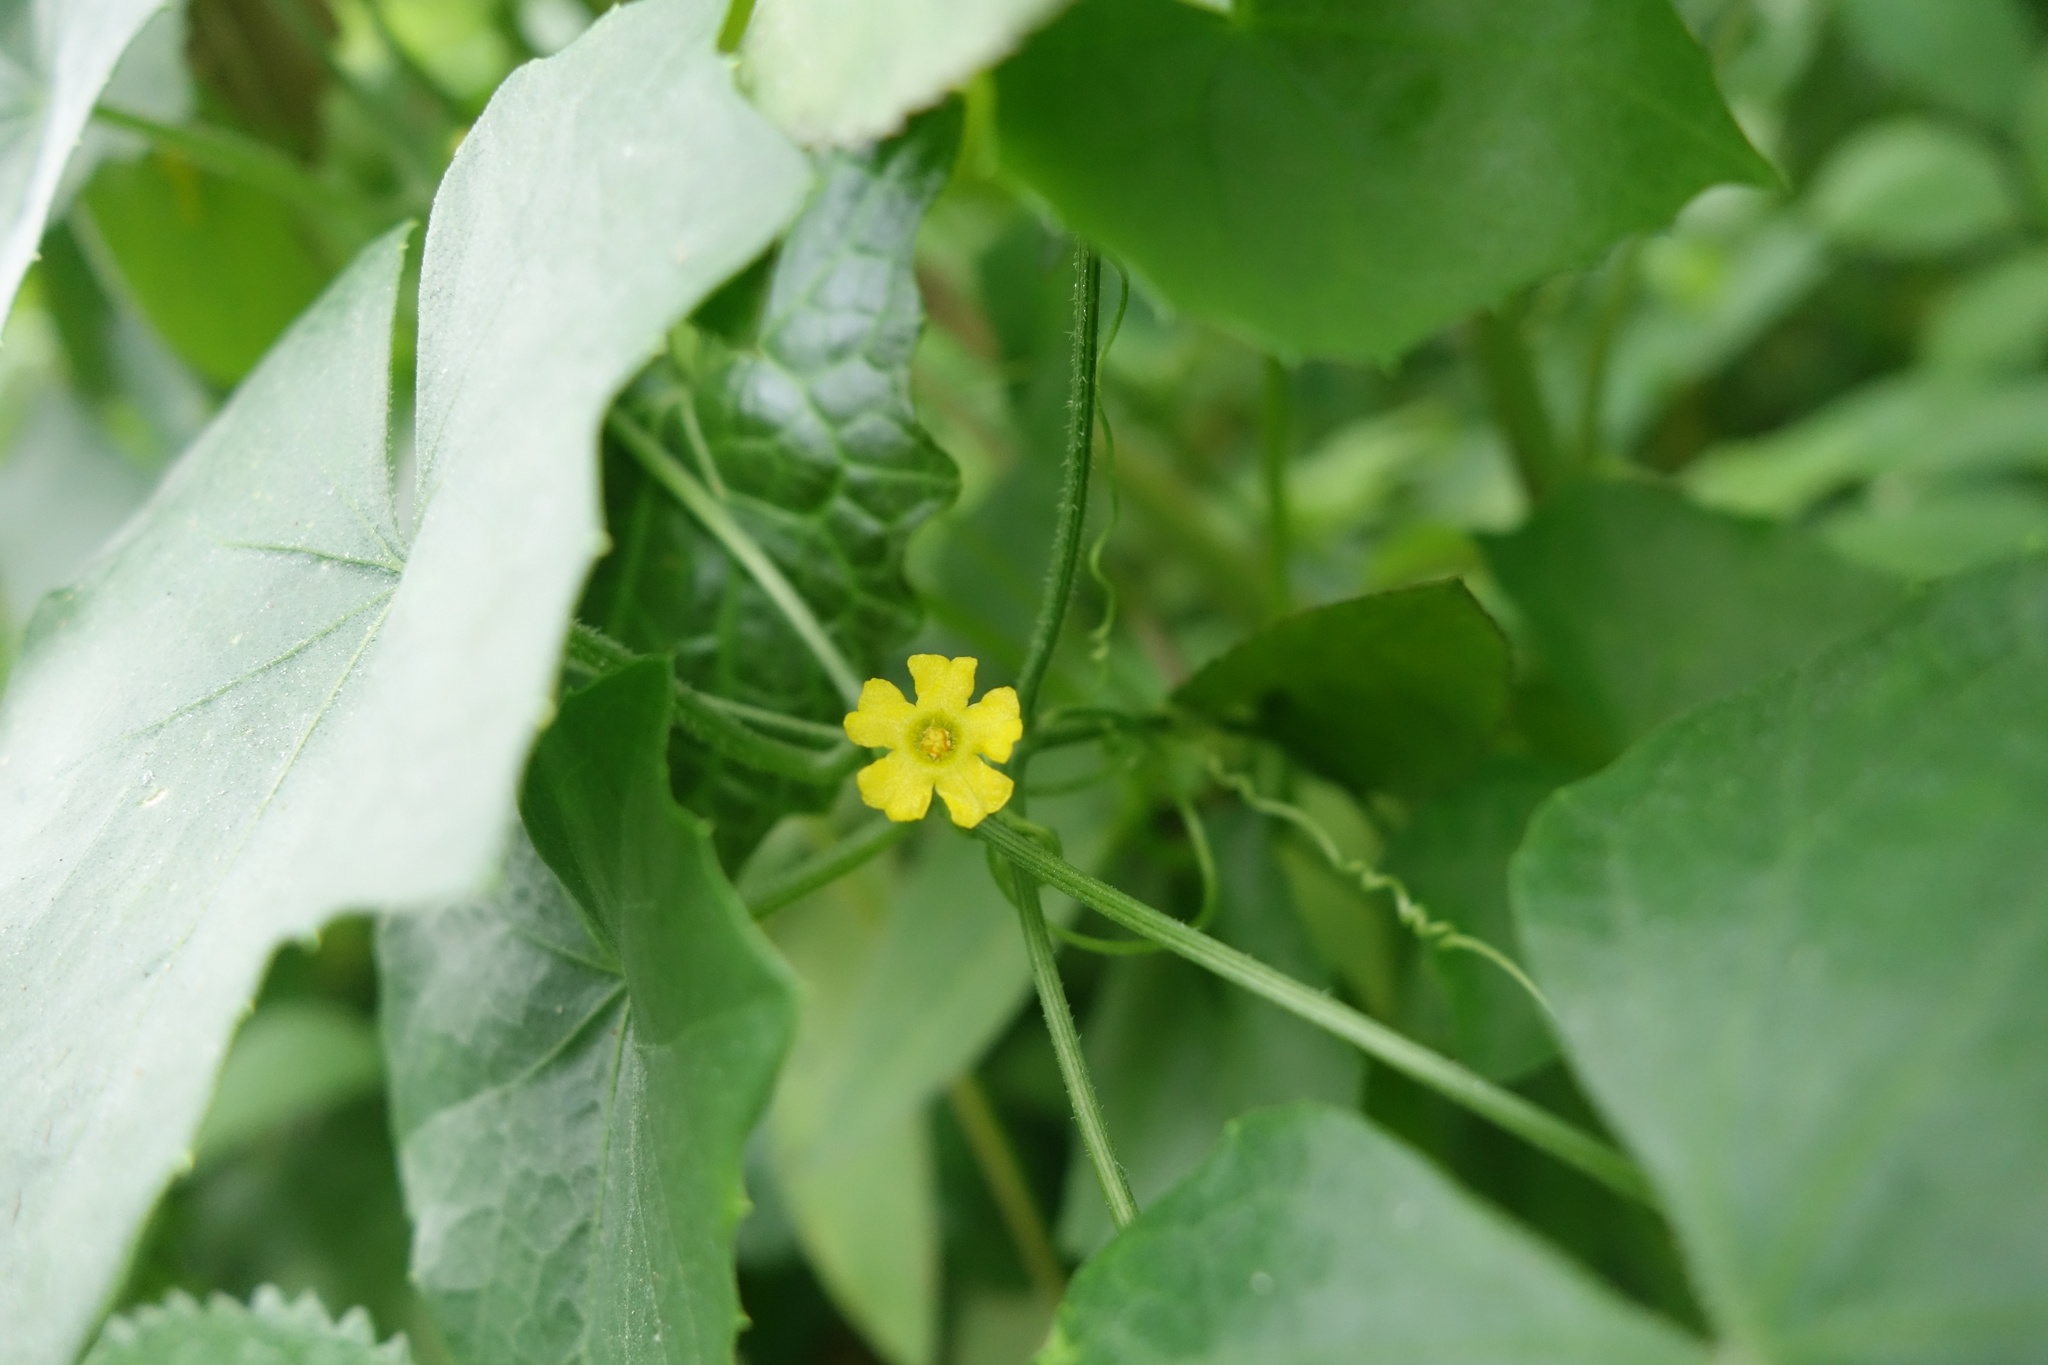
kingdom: Plantae
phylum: Tracheophyta
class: Magnoliopsida
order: Cucurbitales
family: Cucurbitaceae
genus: Melothria
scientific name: Melothria pendula
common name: Creeping-cucumber
